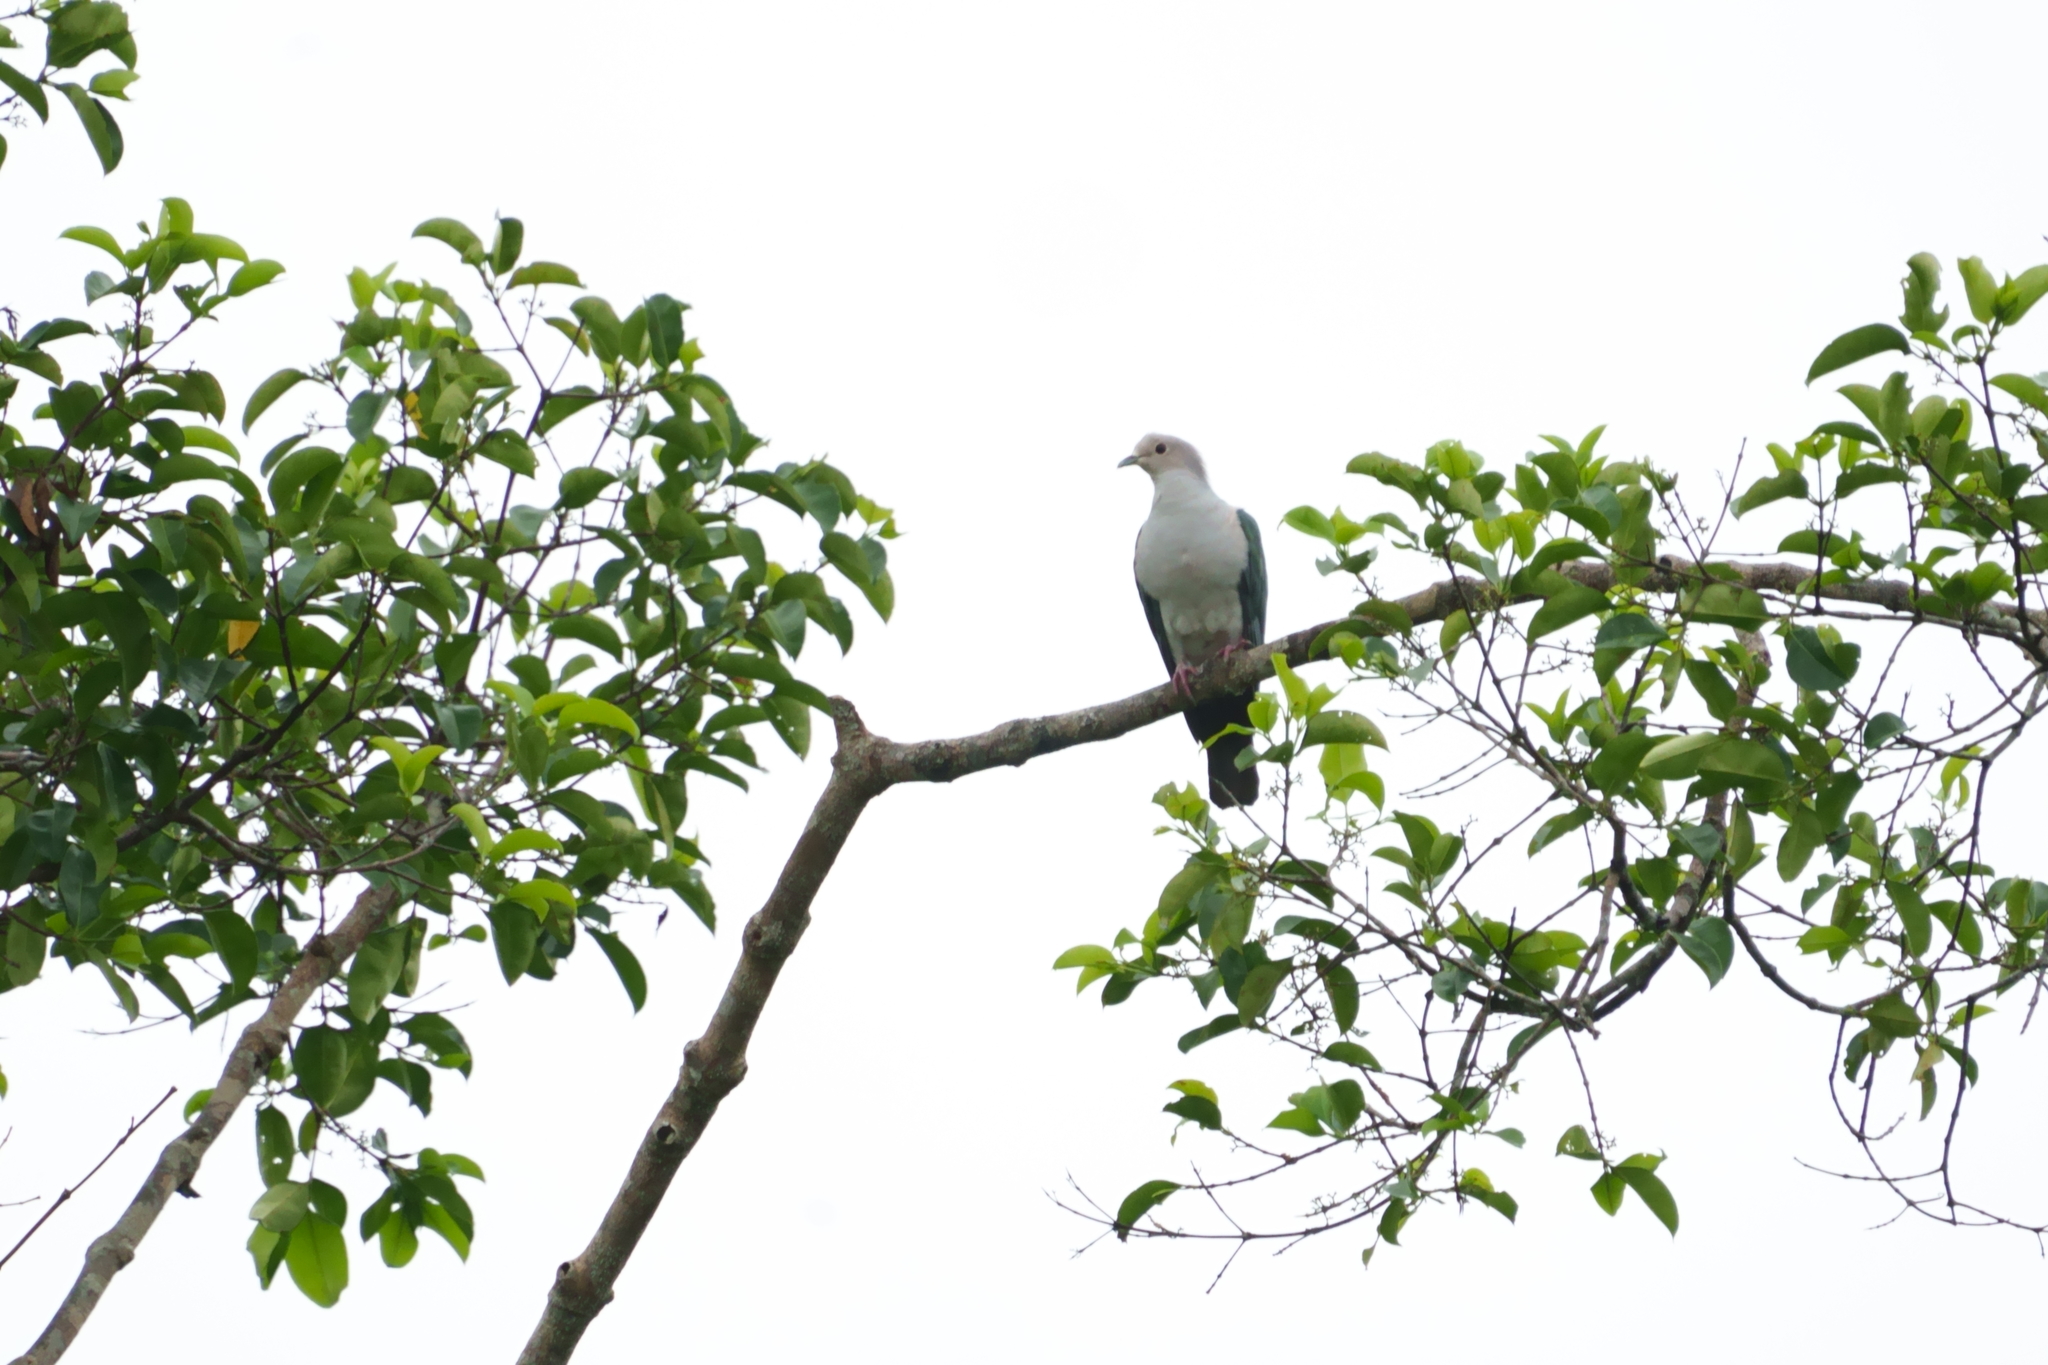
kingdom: Animalia
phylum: Chordata
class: Aves
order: Columbiformes
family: Columbidae
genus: Ducula
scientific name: Ducula aenea
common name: Green imperial pigeon
